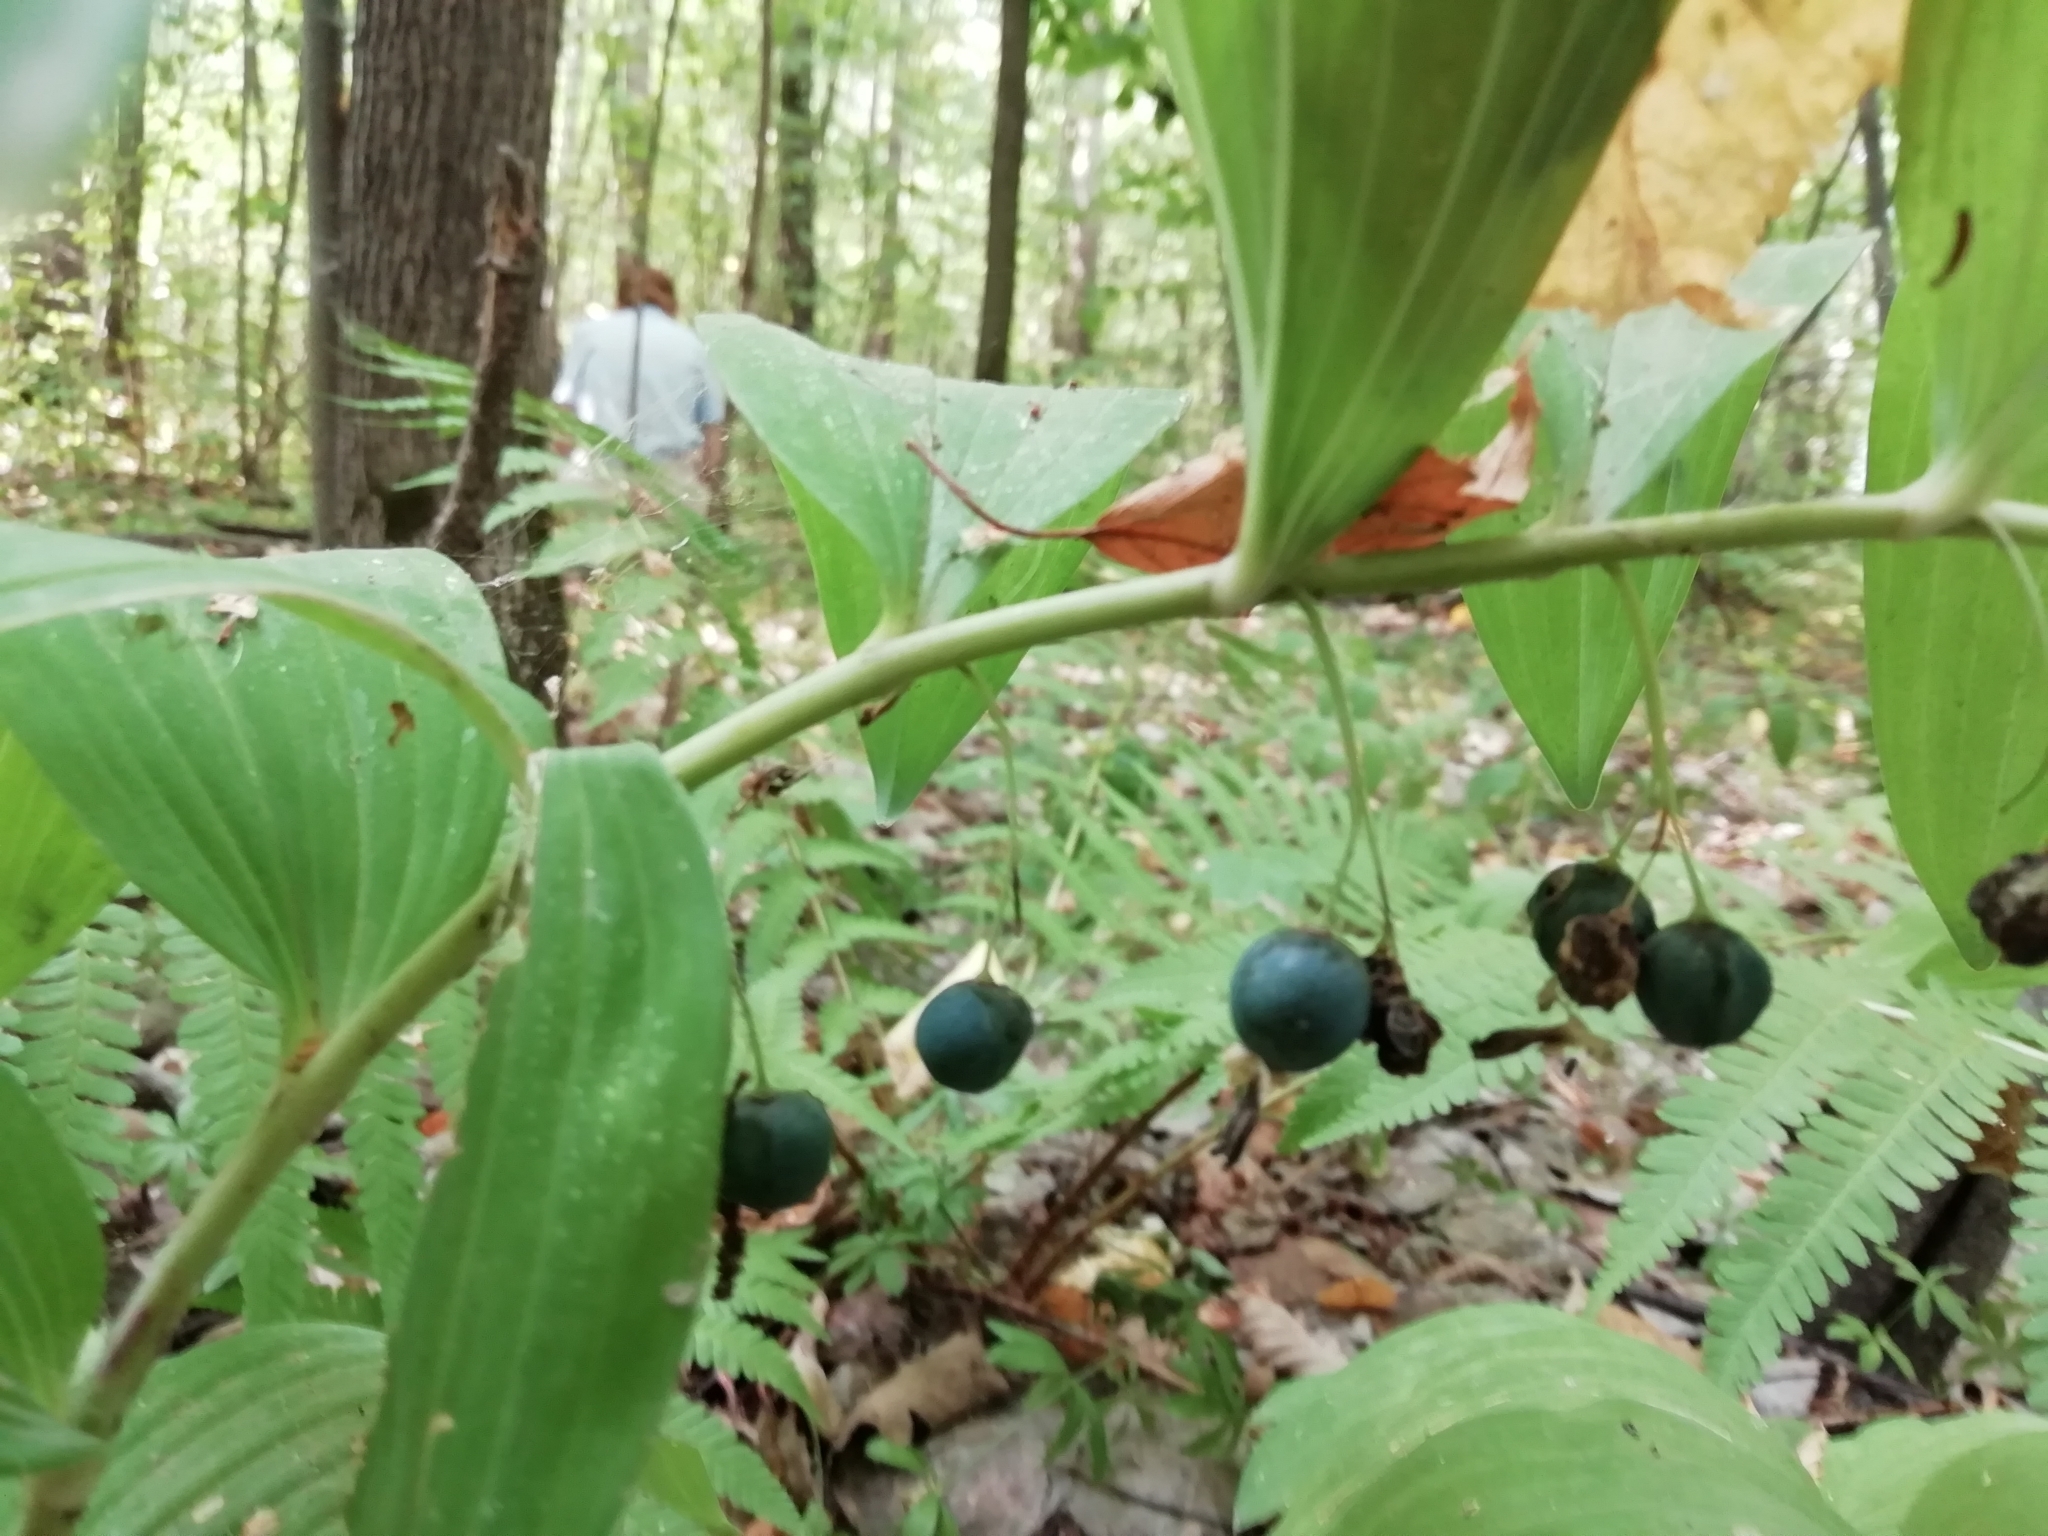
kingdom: Plantae
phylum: Tracheophyta
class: Liliopsida
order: Asparagales
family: Asparagaceae
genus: Polygonatum
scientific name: Polygonatum multiflorum
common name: Solomon's-seal
